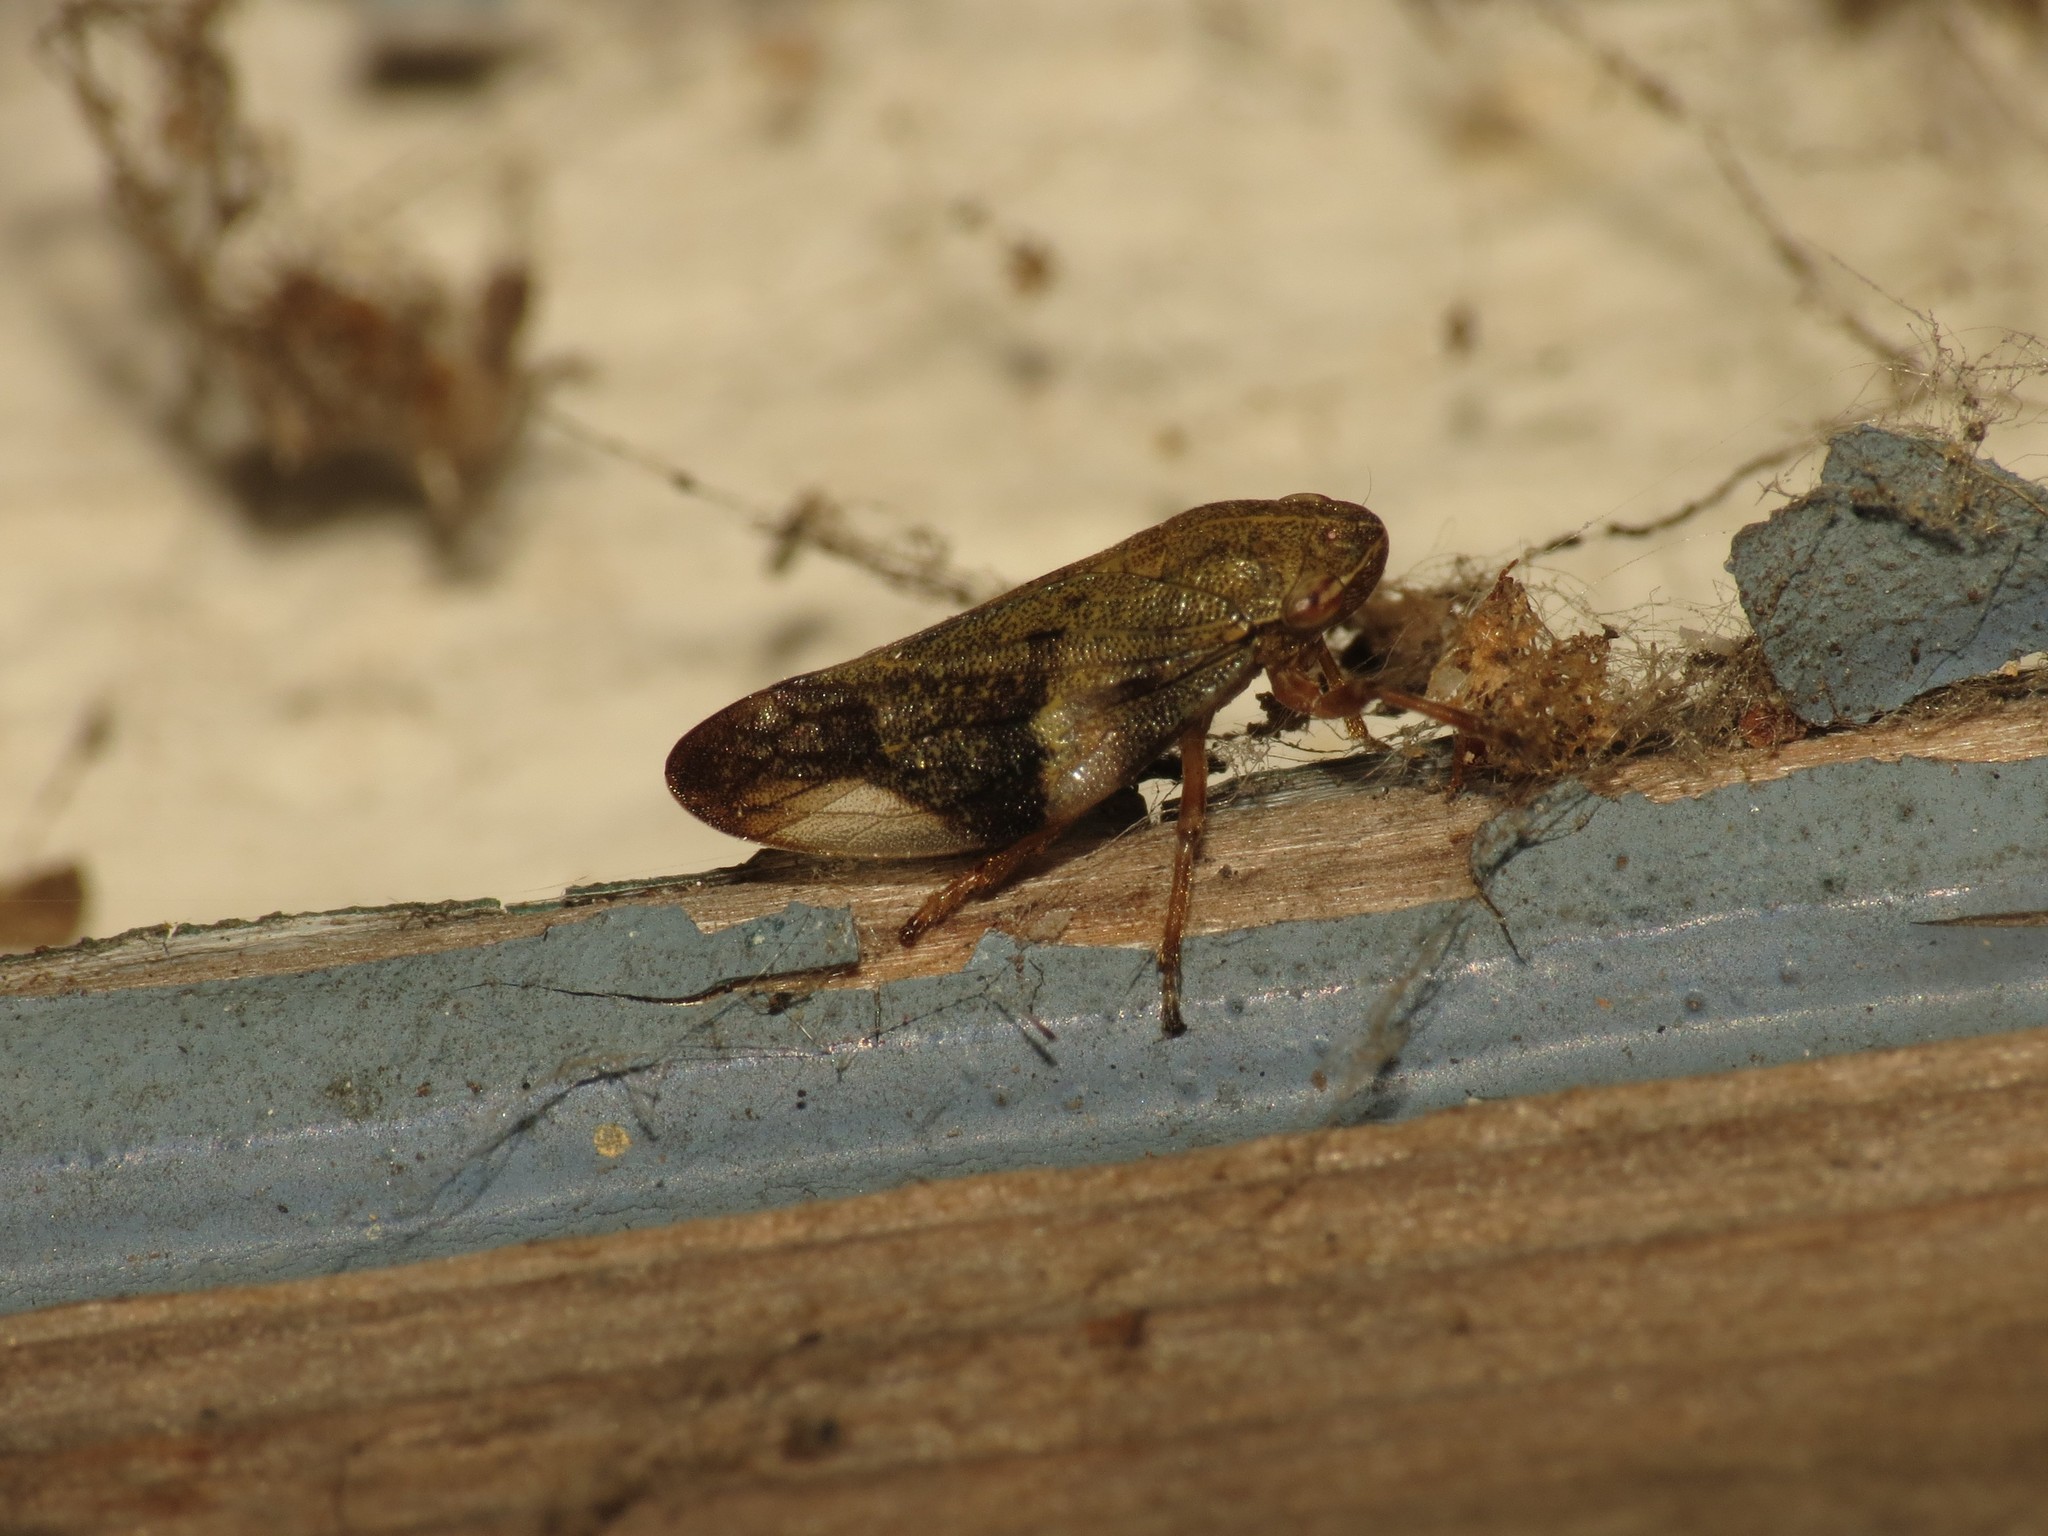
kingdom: Animalia
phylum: Arthropoda
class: Insecta
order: Hemiptera
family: Aphrophoridae
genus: Aphrophora
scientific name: Aphrophora alni
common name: European alder spittlebug
